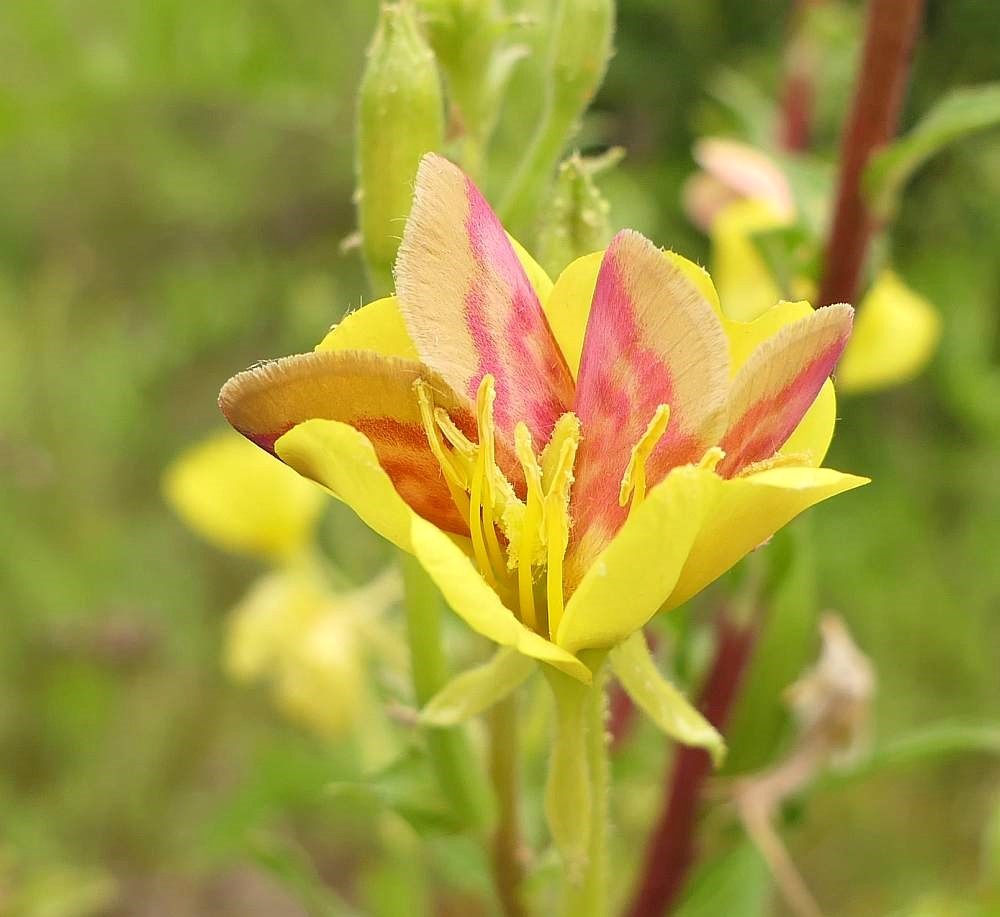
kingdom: Animalia
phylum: Arthropoda
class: Insecta
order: Lepidoptera
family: Noctuidae
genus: Schinia
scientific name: Schinia florida
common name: Primrose moth
